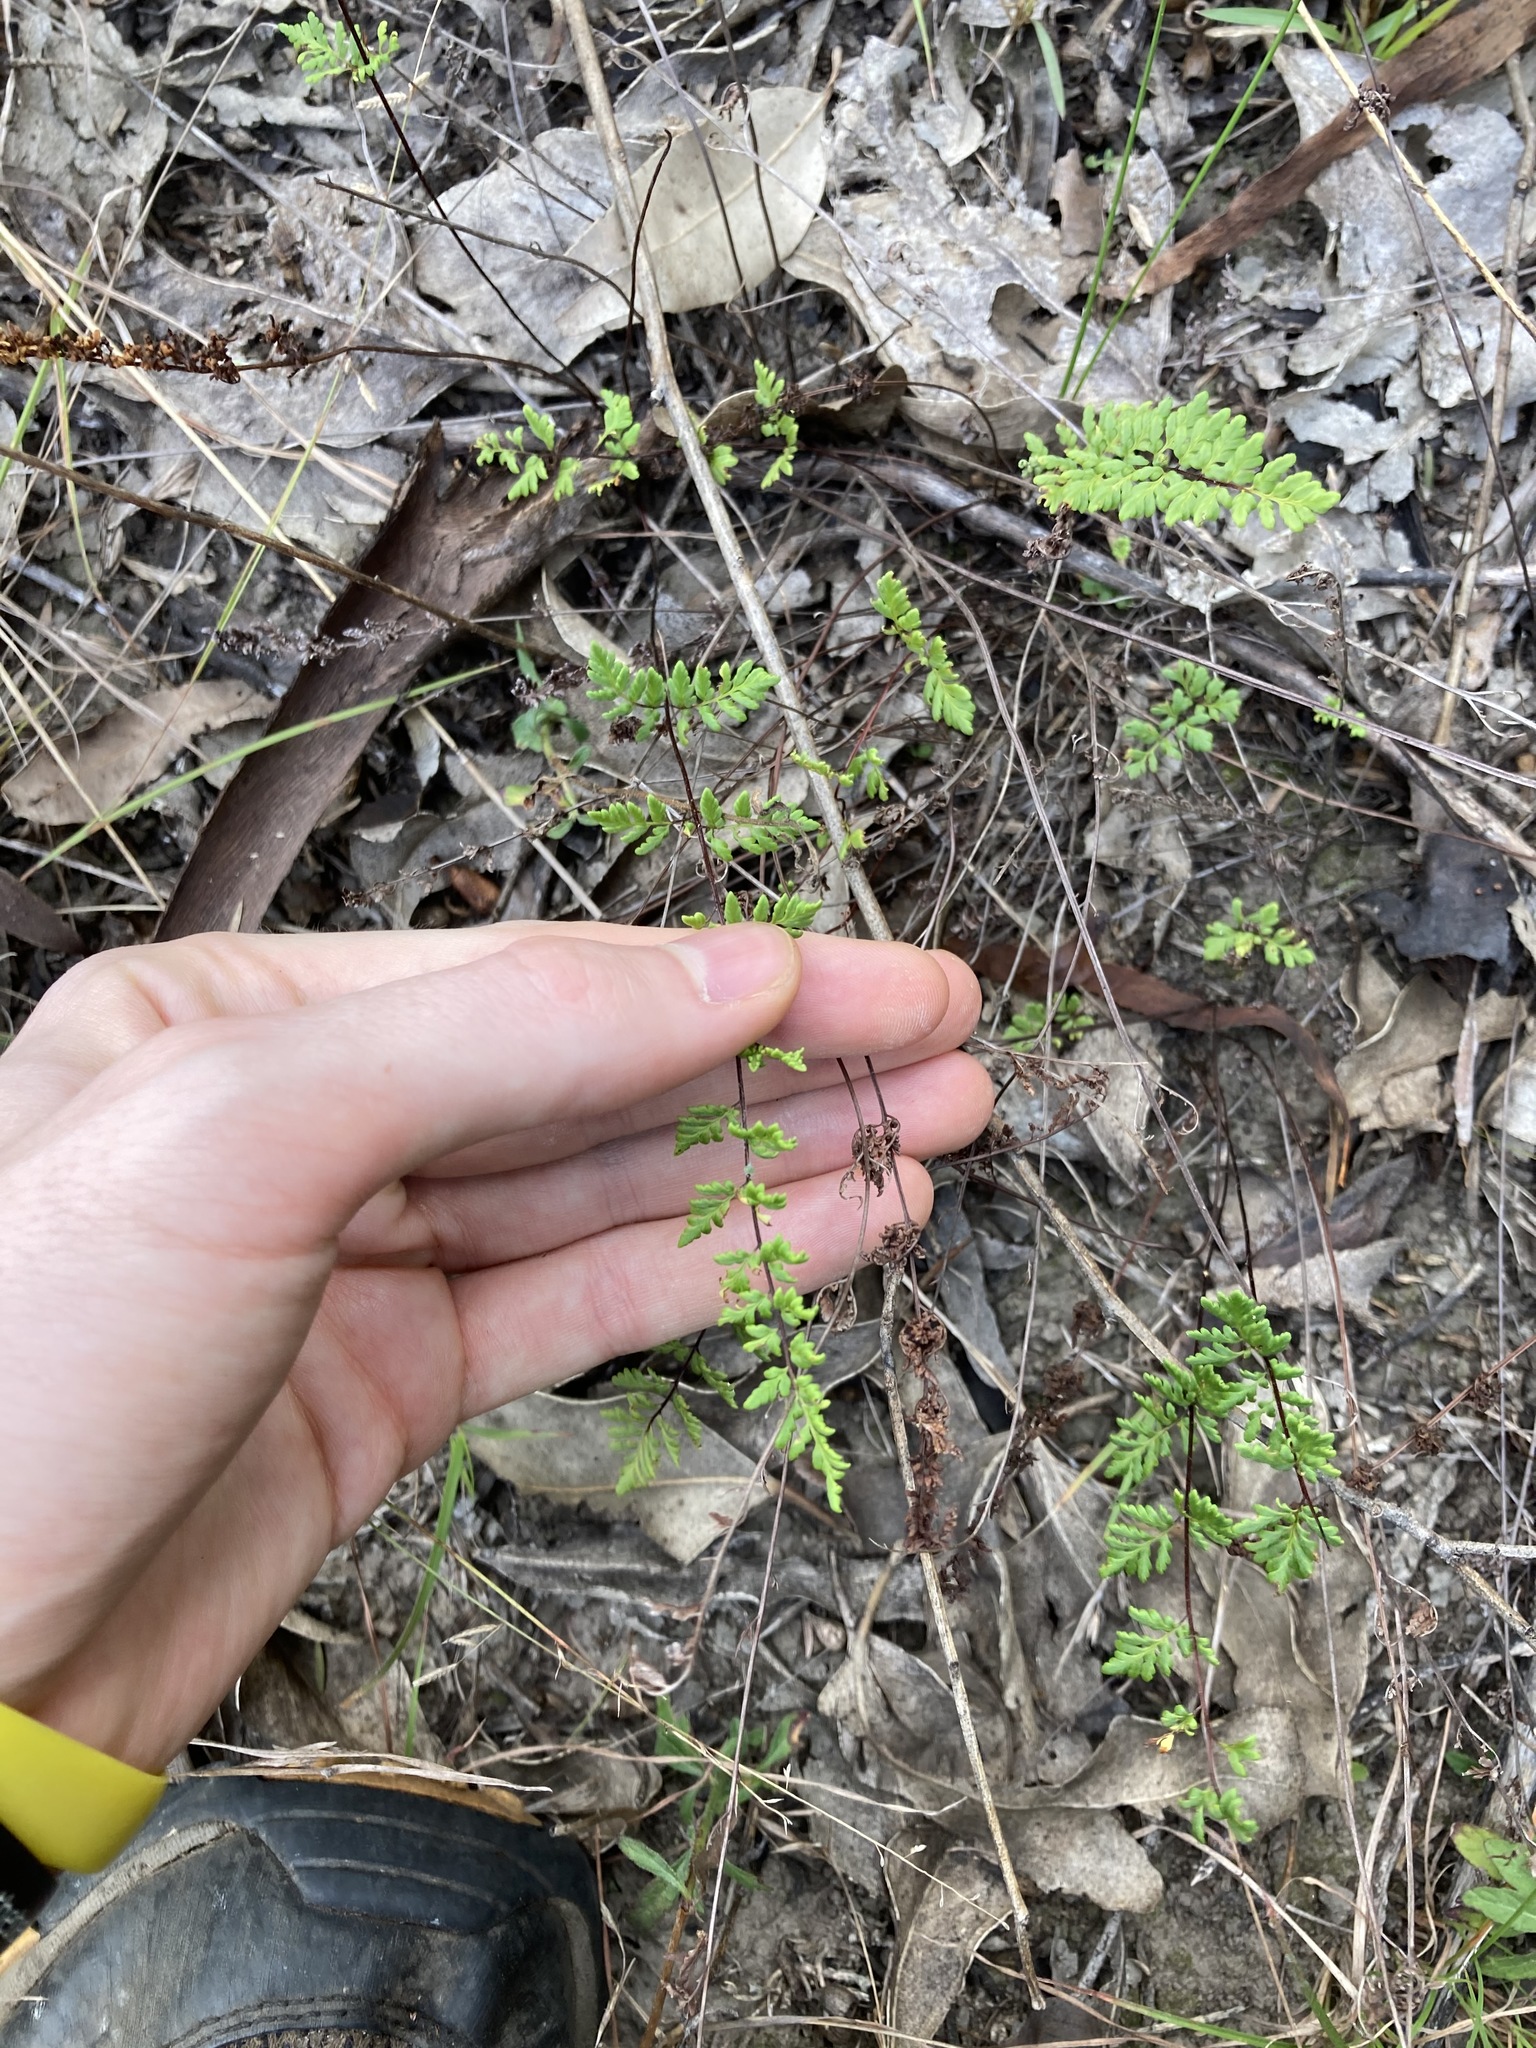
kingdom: Plantae
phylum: Tracheophyta
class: Polypodiopsida
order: Polypodiales
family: Pteridaceae
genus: Cheilanthes
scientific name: Cheilanthes sieberi
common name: Mulga fern
